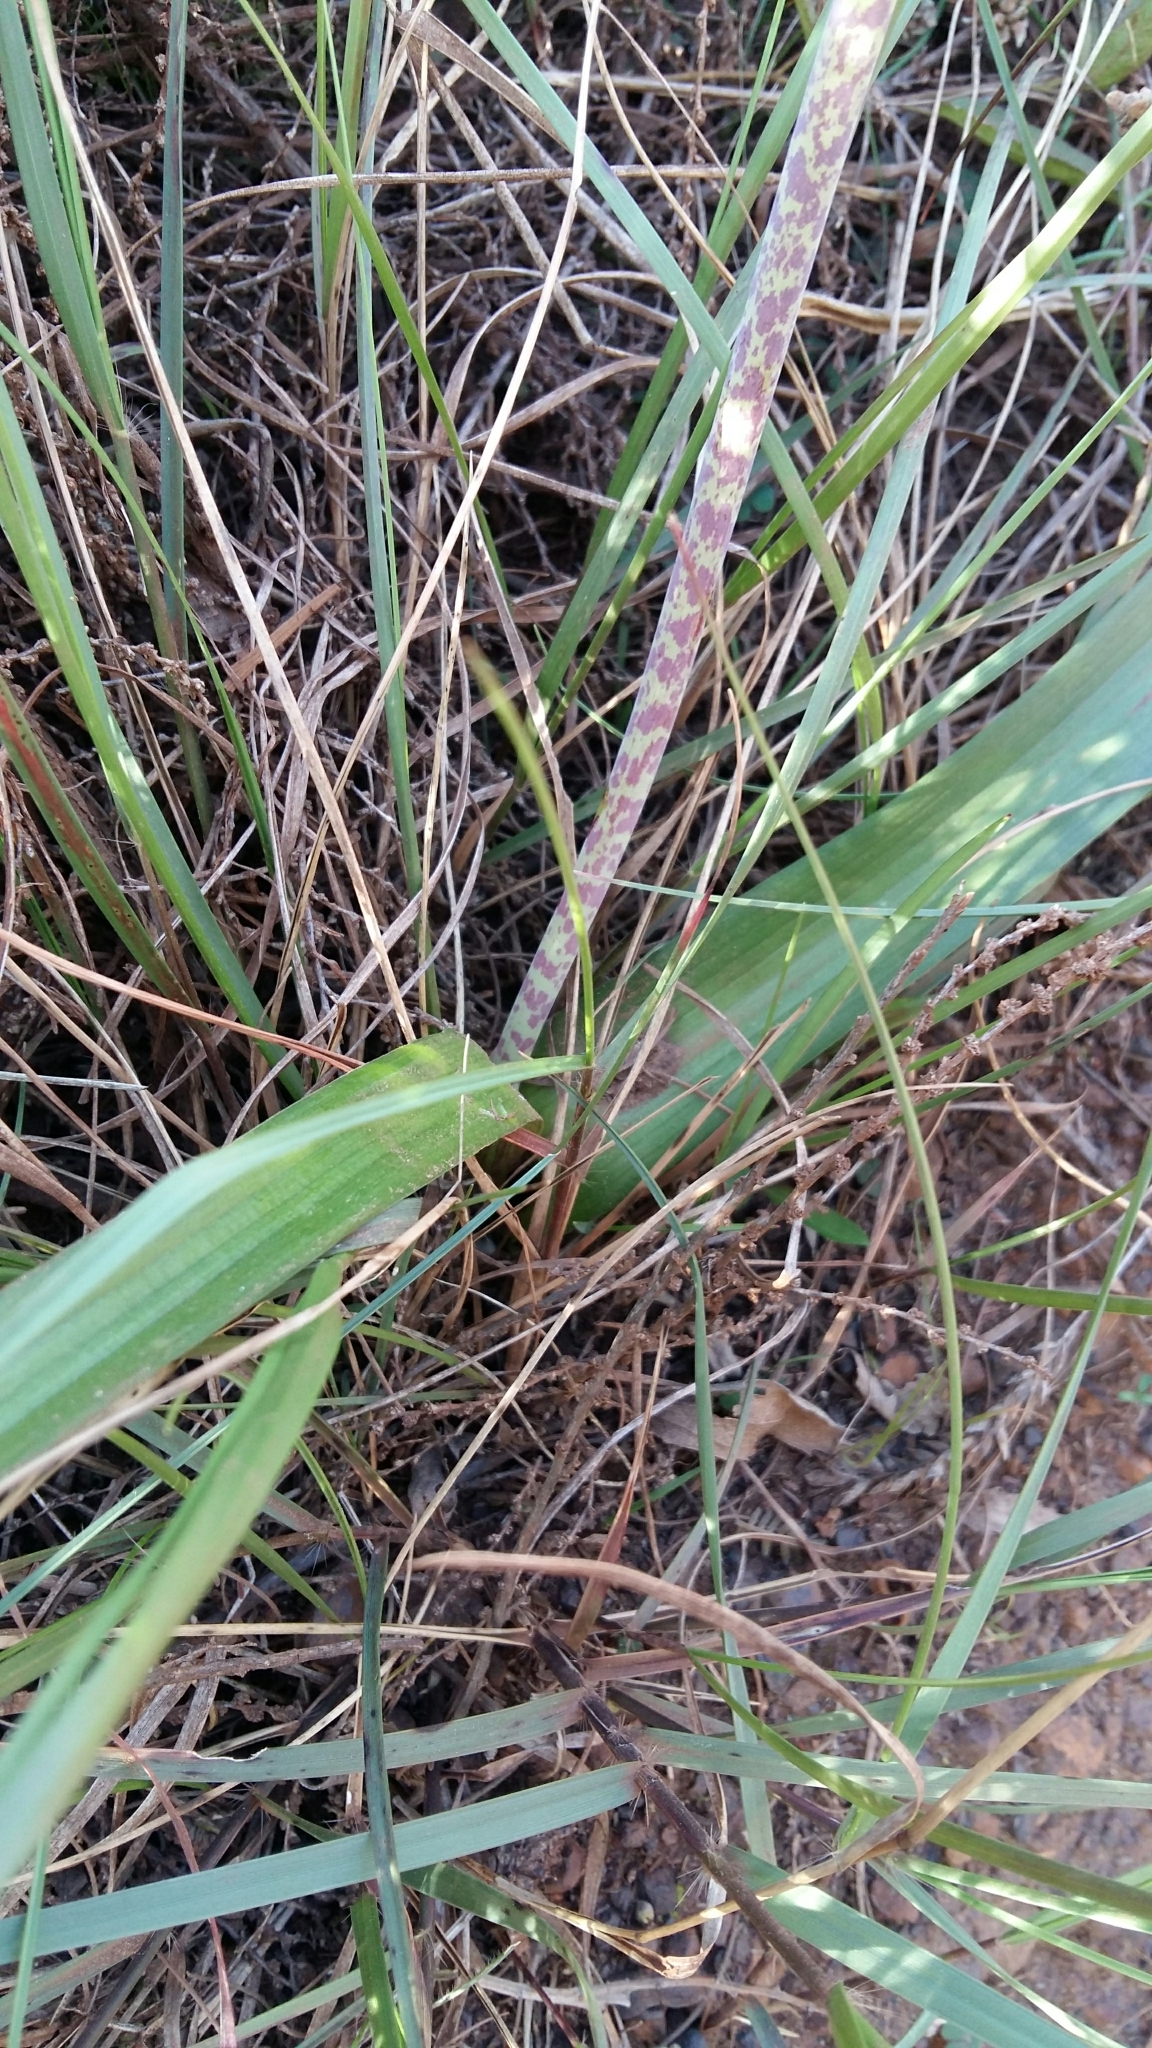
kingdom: Plantae
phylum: Tracheophyta
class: Liliopsida
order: Asparagales
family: Asparagaceae
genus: Lachenalia
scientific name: Lachenalia algoensis
